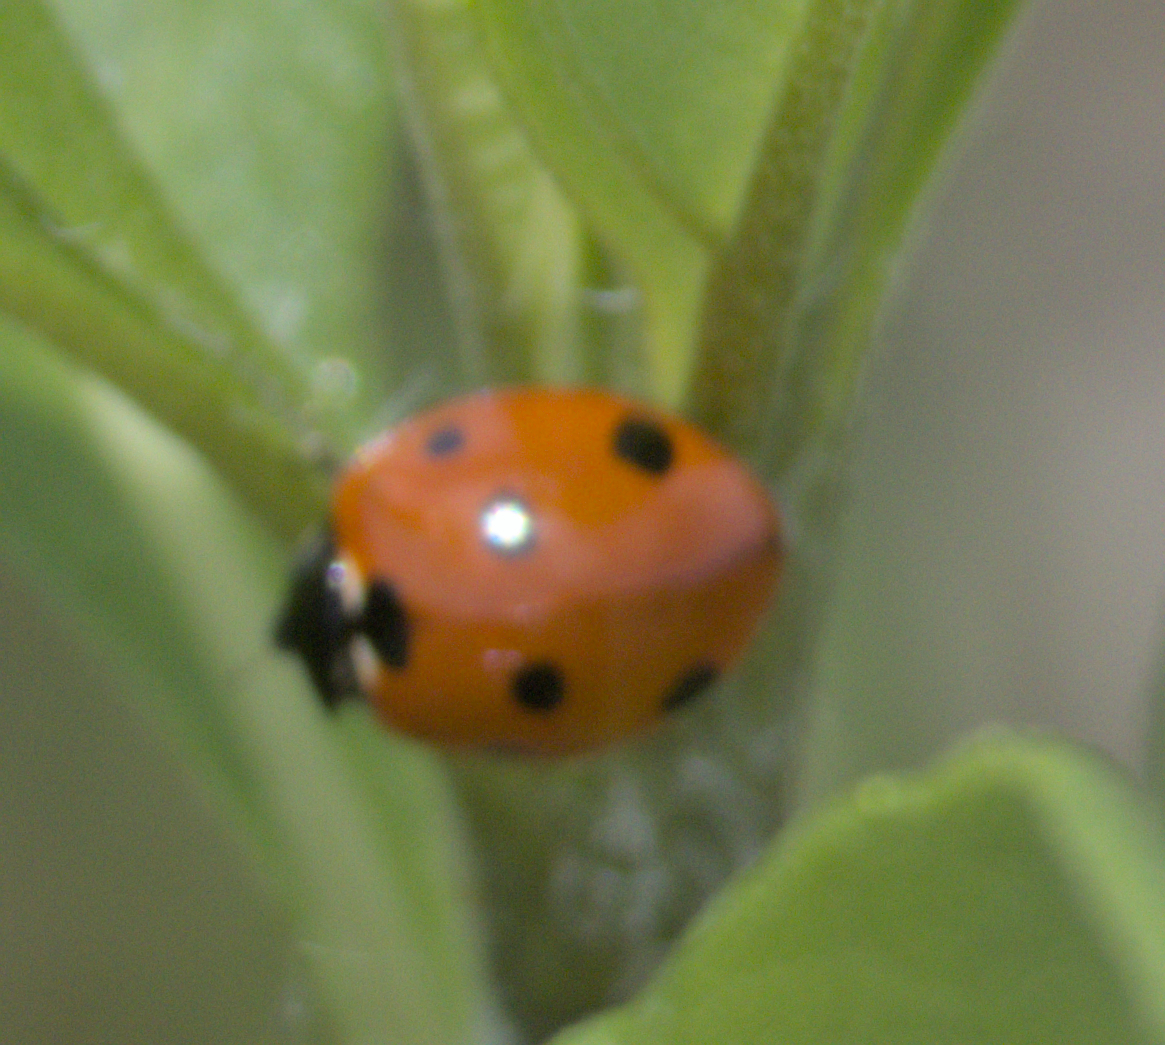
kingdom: Animalia
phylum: Arthropoda
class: Insecta
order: Coleoptera
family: Coccinellidae
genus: Coccinella
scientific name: Coccinella septempunctata
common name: Sevenspotted lady beetle
